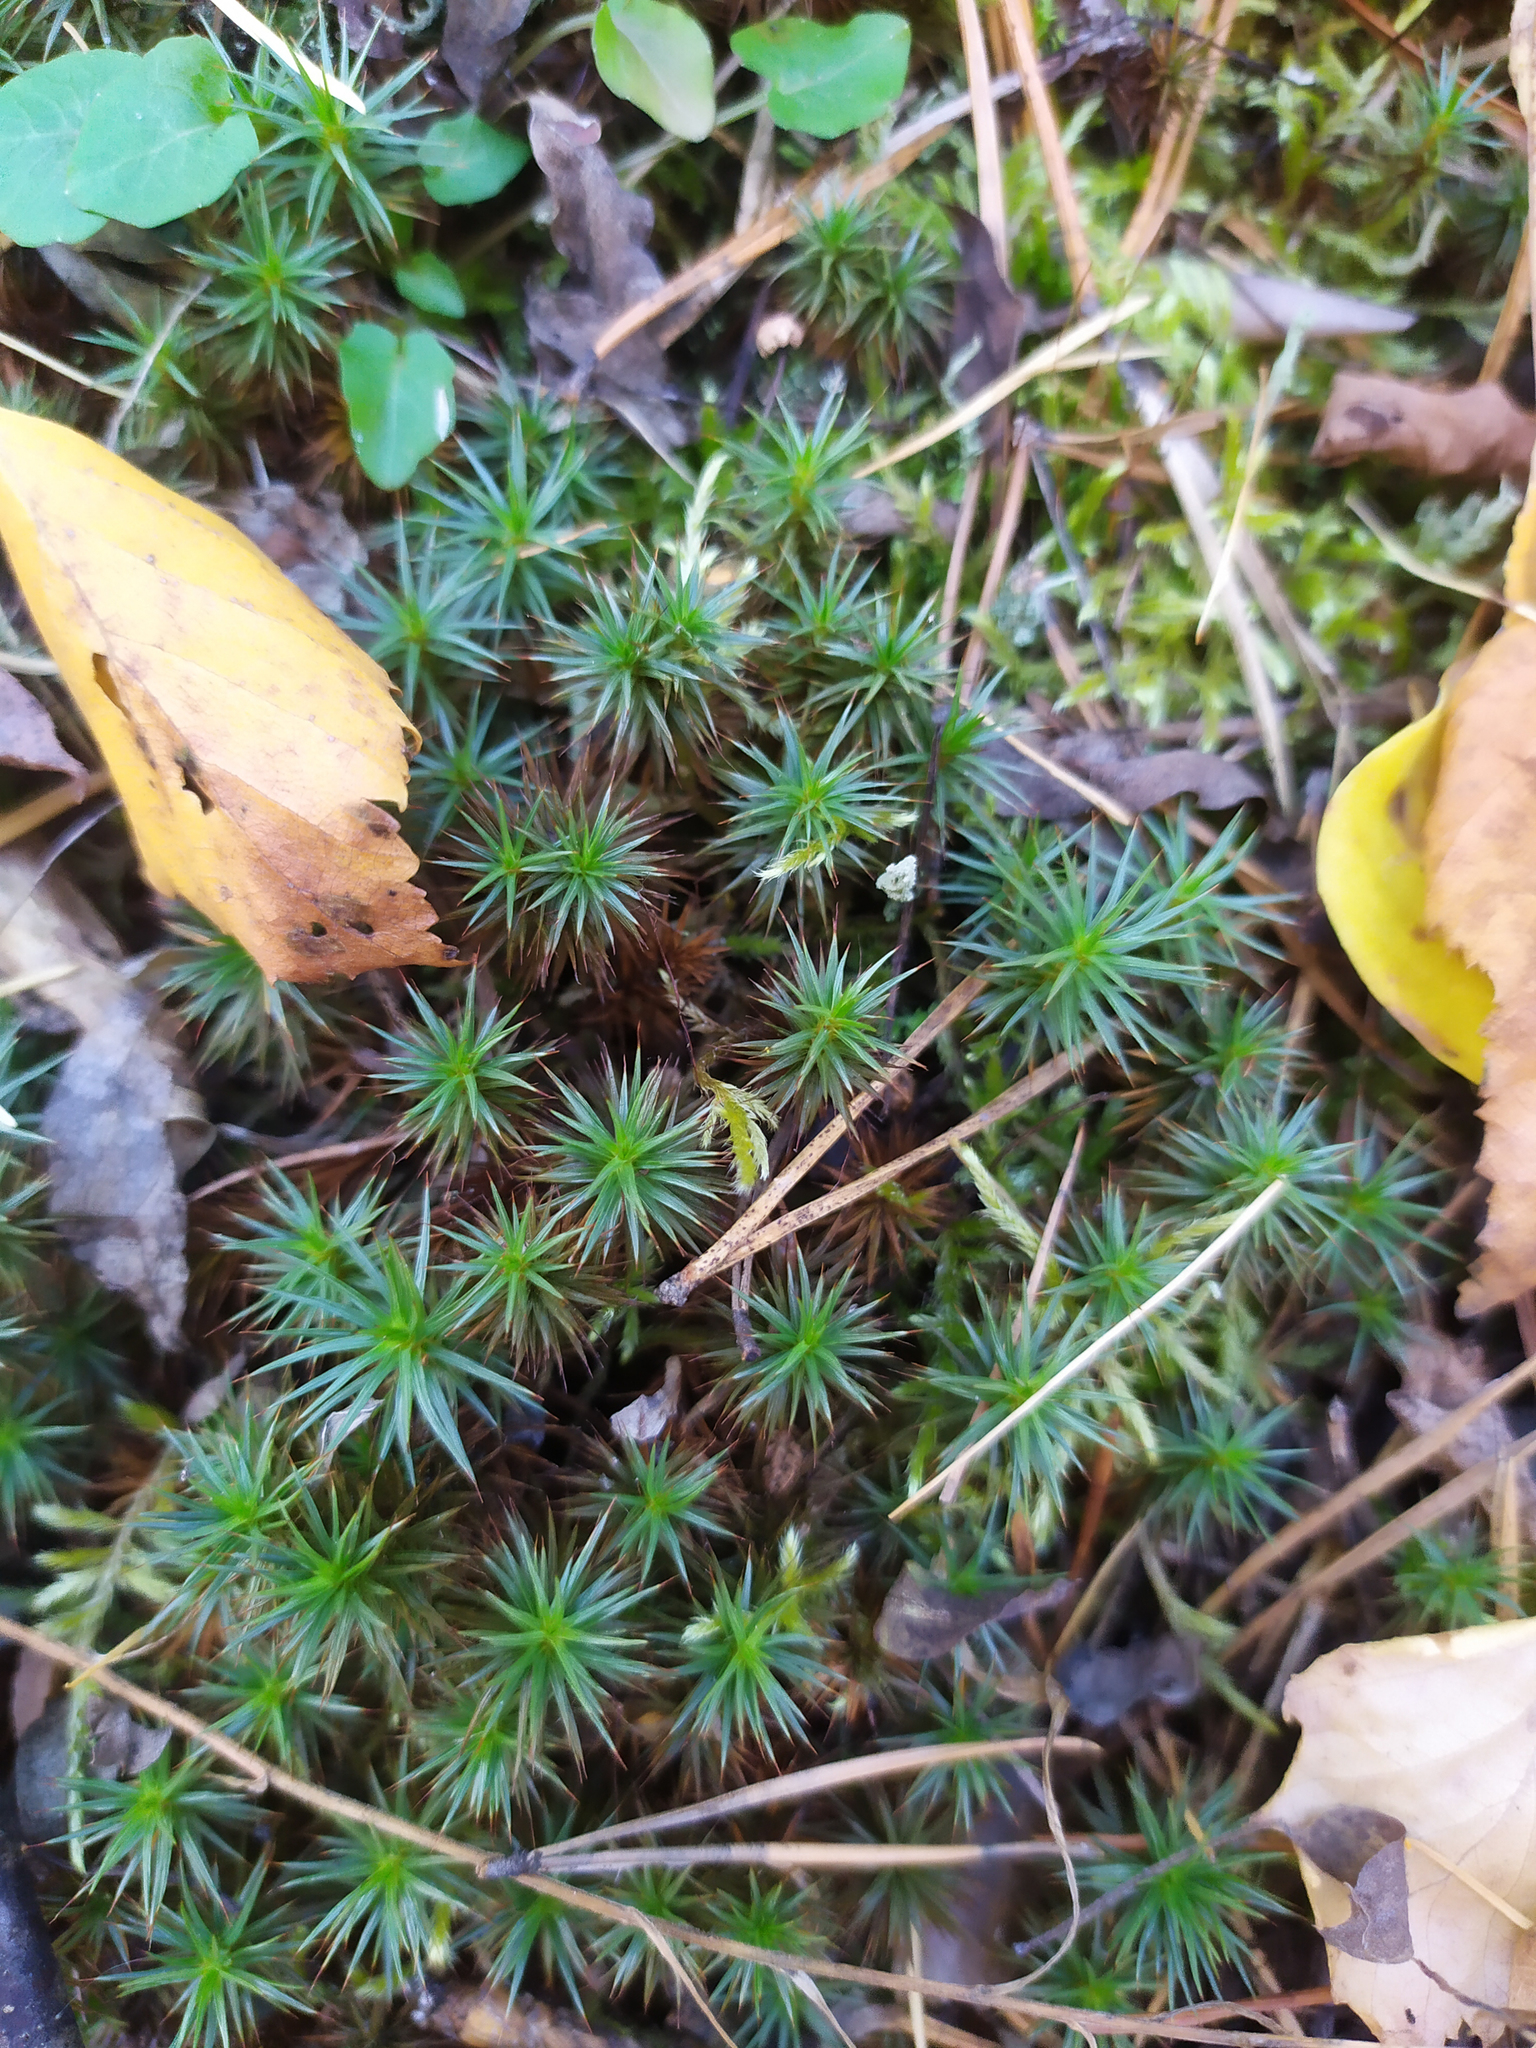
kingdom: Plantae
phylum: Bryophyta
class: Polytrichopsida
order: Polytrichales
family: Polytrichaceae
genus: Polytrichum
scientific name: Polytrichum juniperinum
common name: Juniper haircap moss
